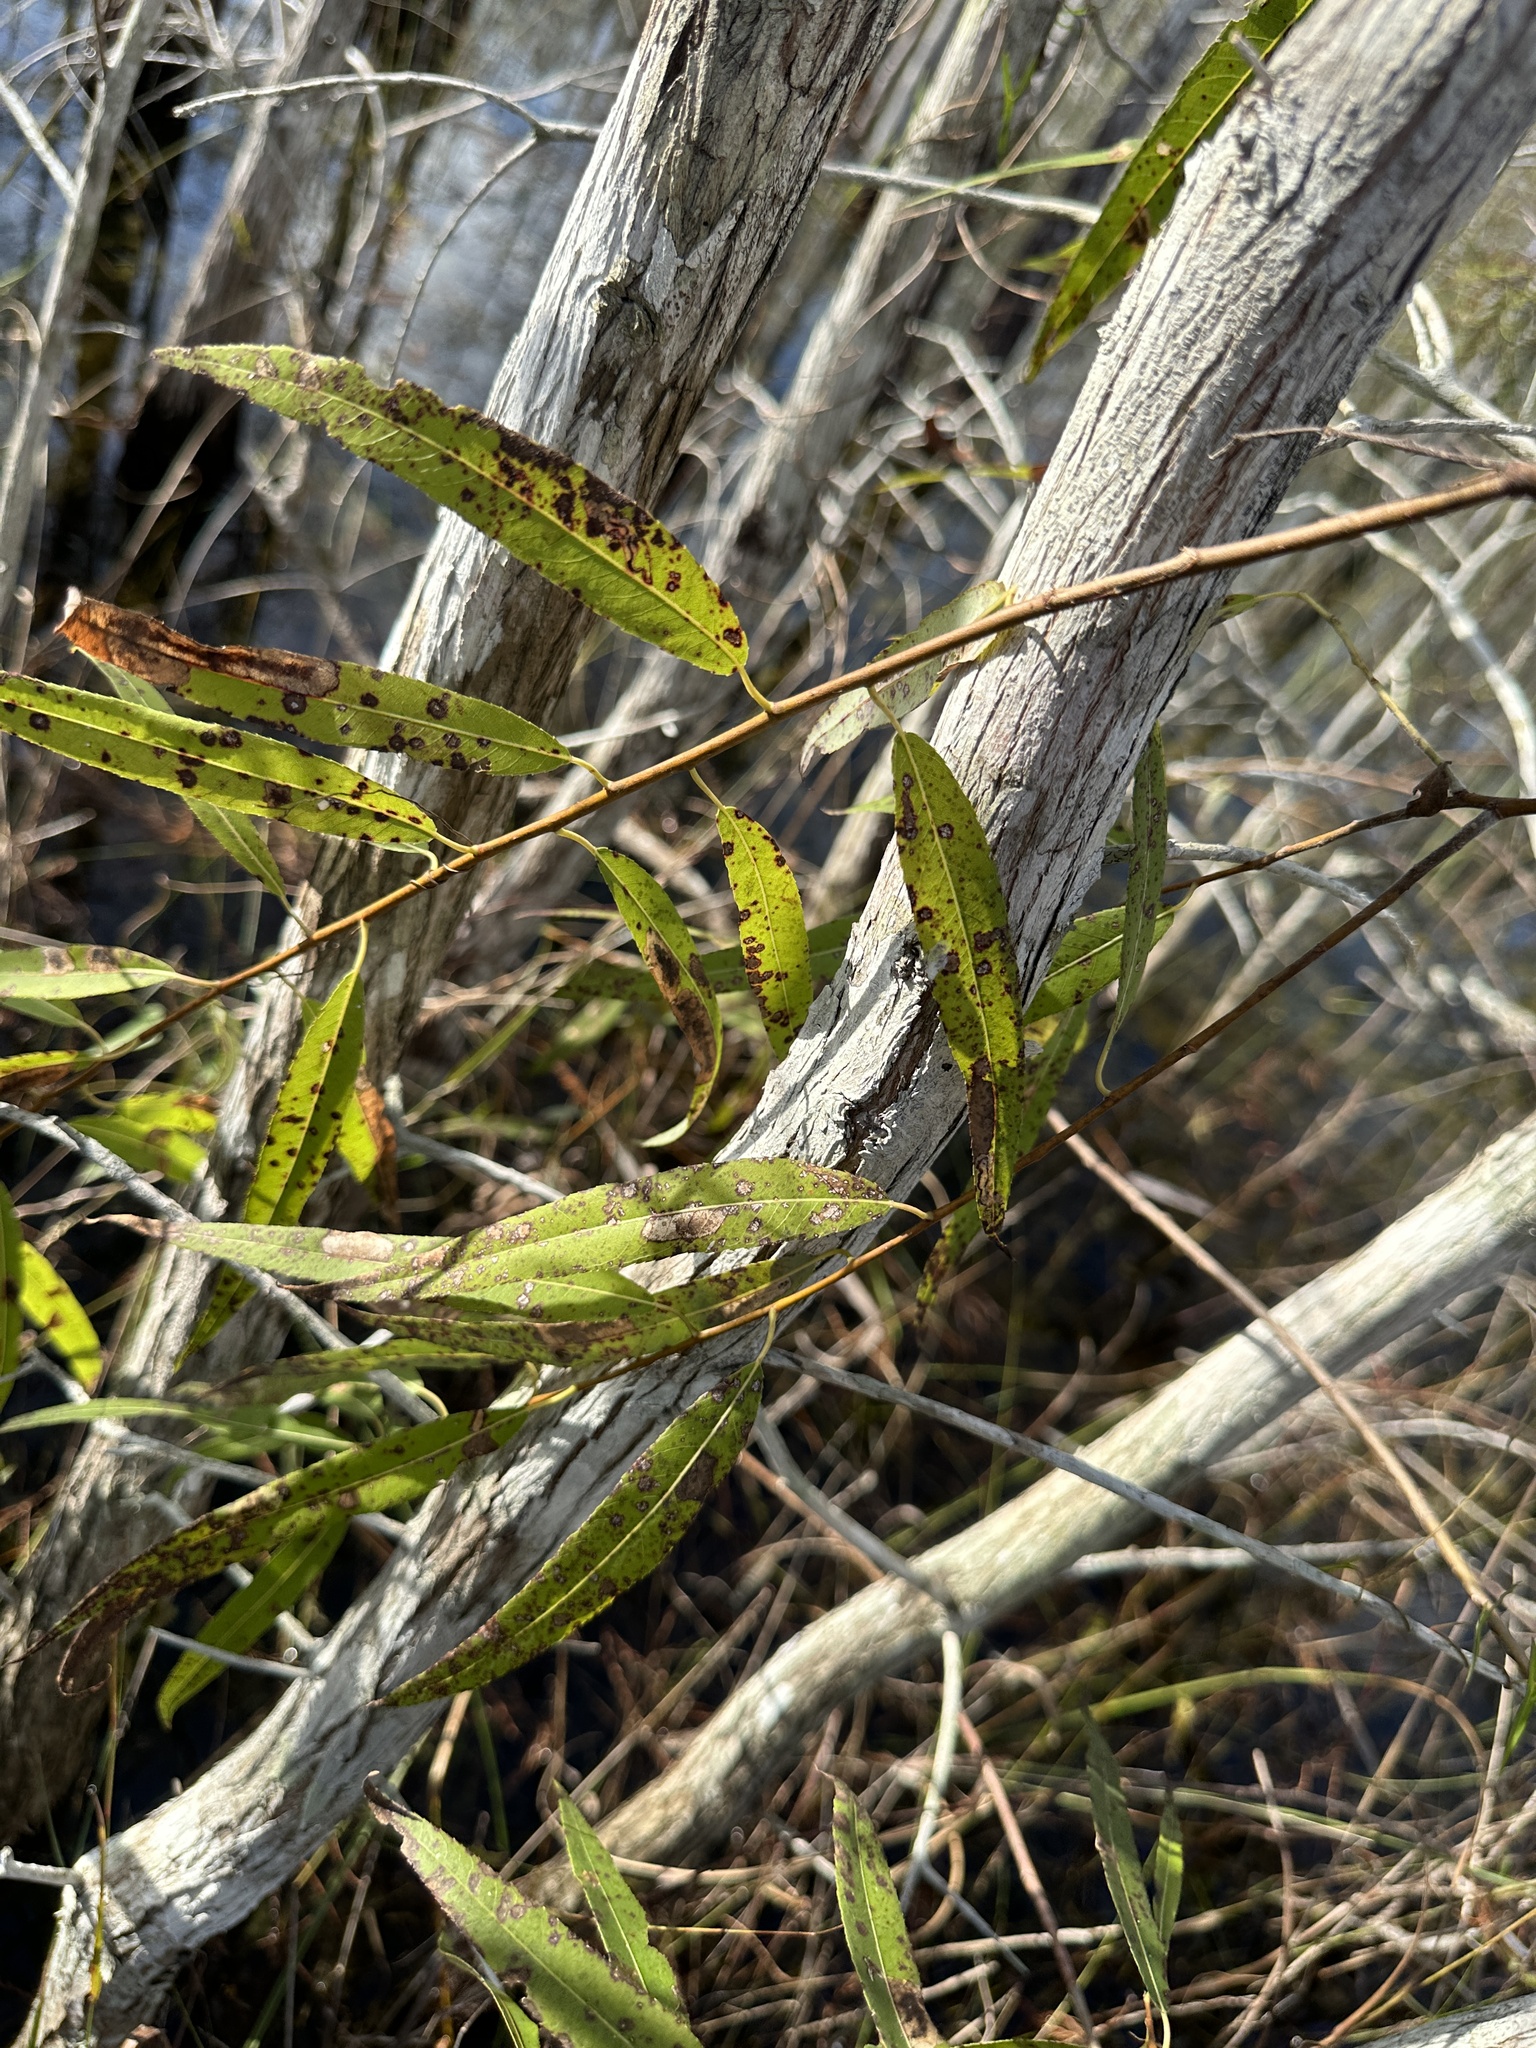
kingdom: Plantae
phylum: Tracheophyta
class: Magnoliopsida
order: Malpighiales
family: Salicaceae
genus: Salix
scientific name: Salix caroliniana
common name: Carolina willow
